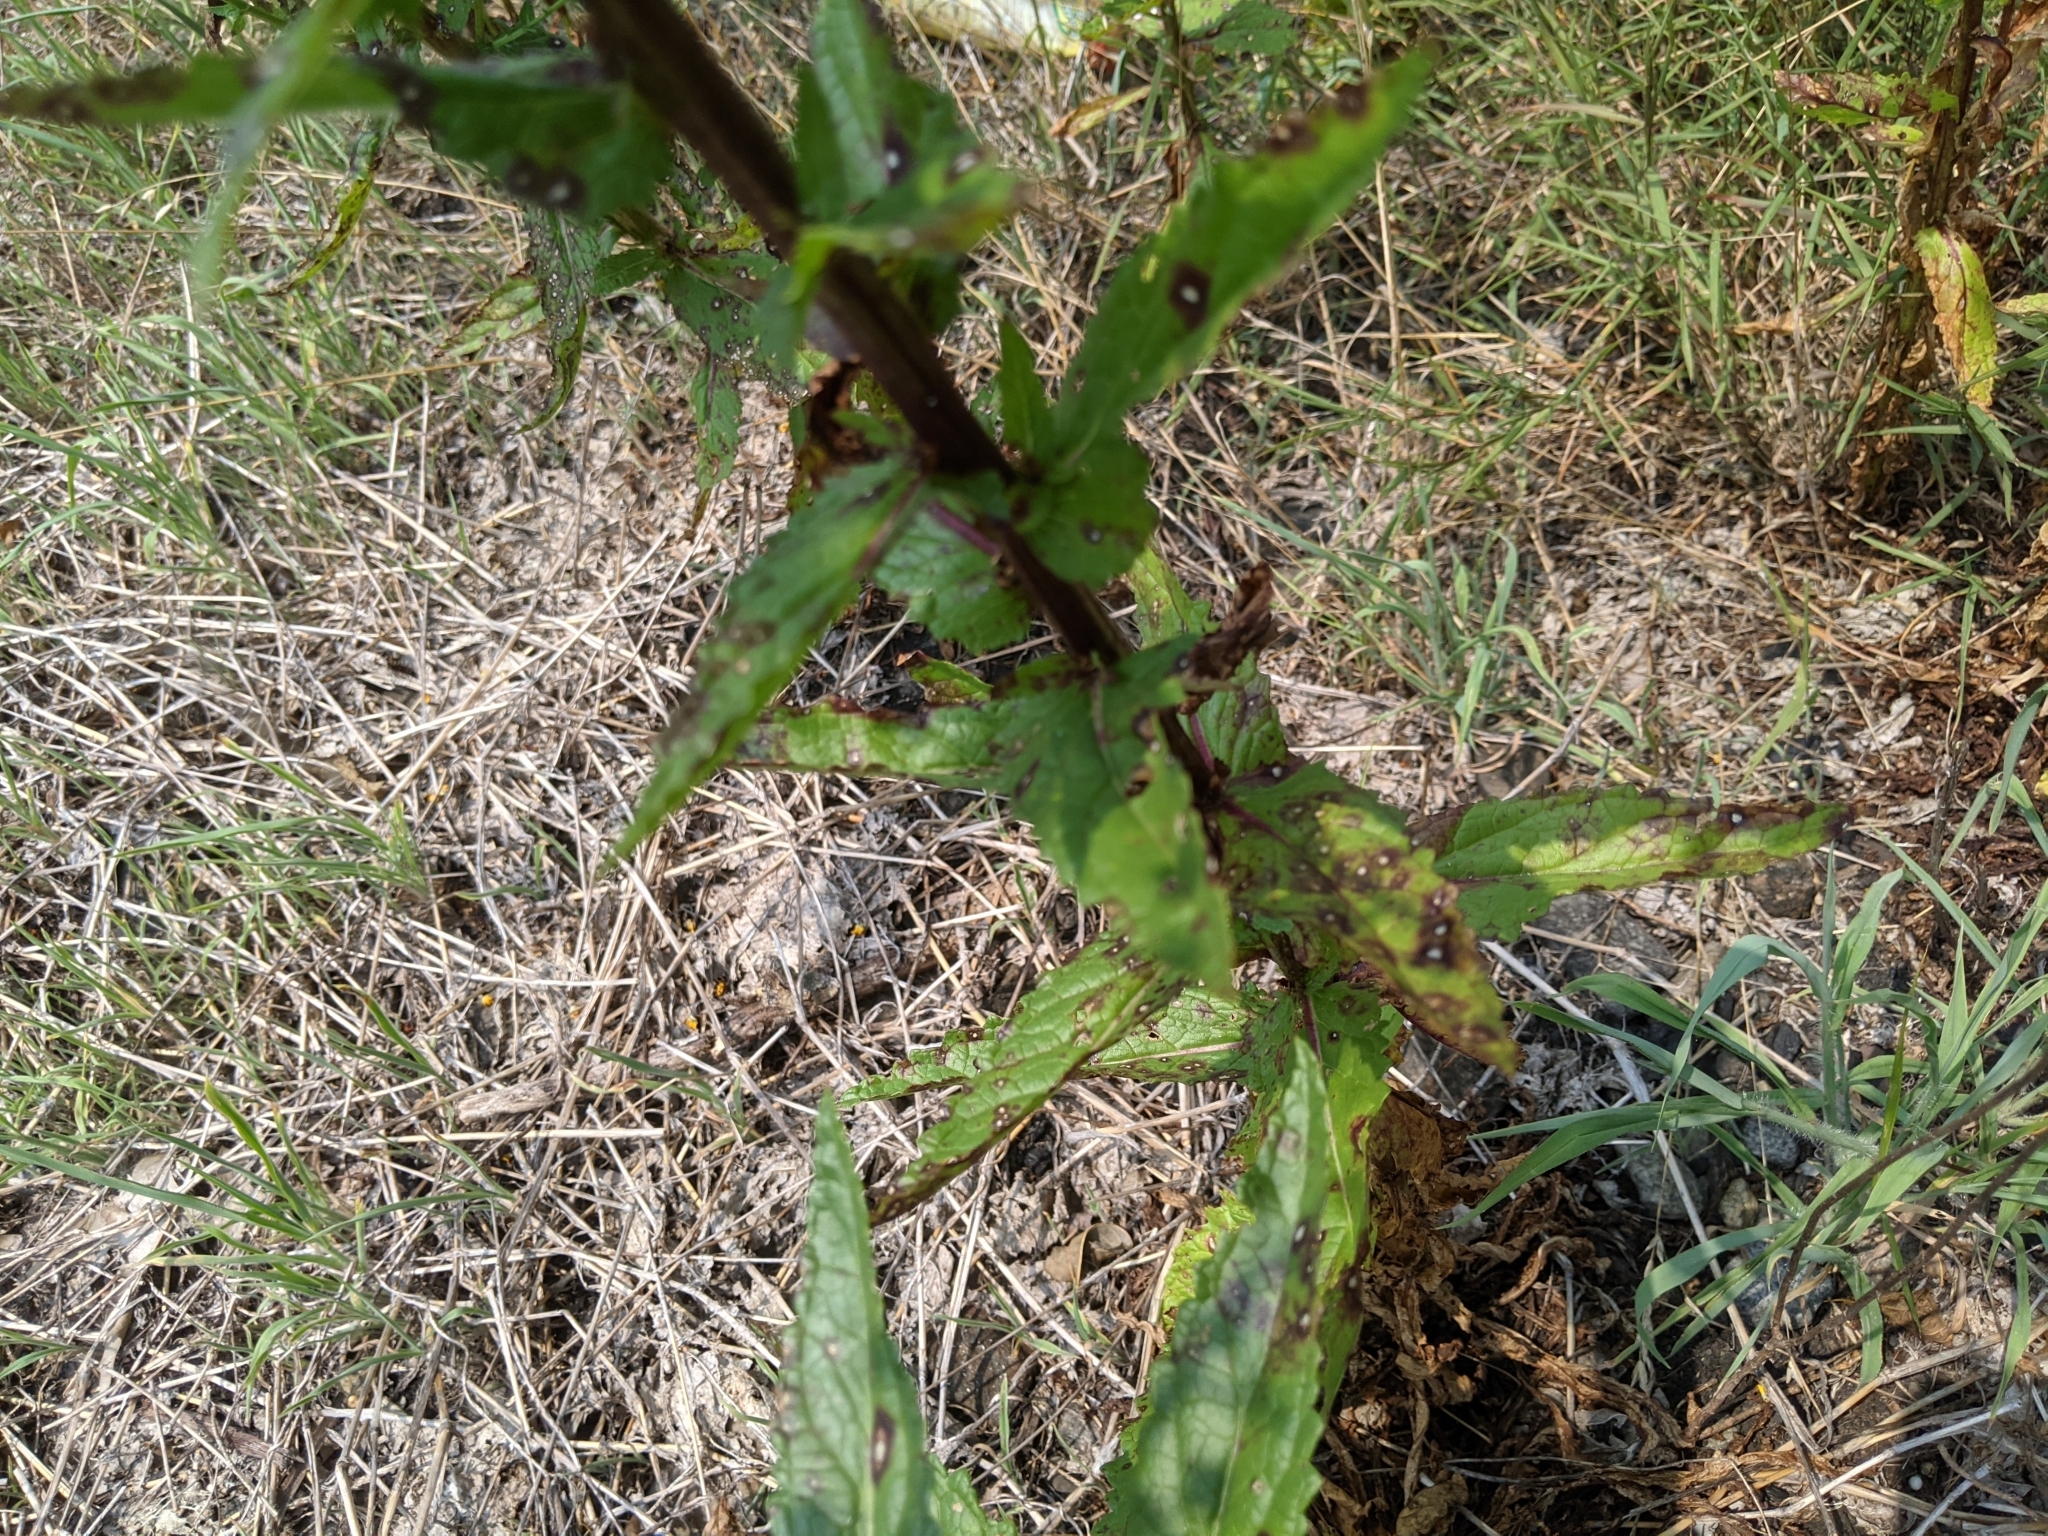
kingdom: Plantae
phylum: Tracheophyta
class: Magnoliopsida
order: Lamiales
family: Scrophulariaceae
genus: Verbascum
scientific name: Verbascum blattaria
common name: Moth mullein
